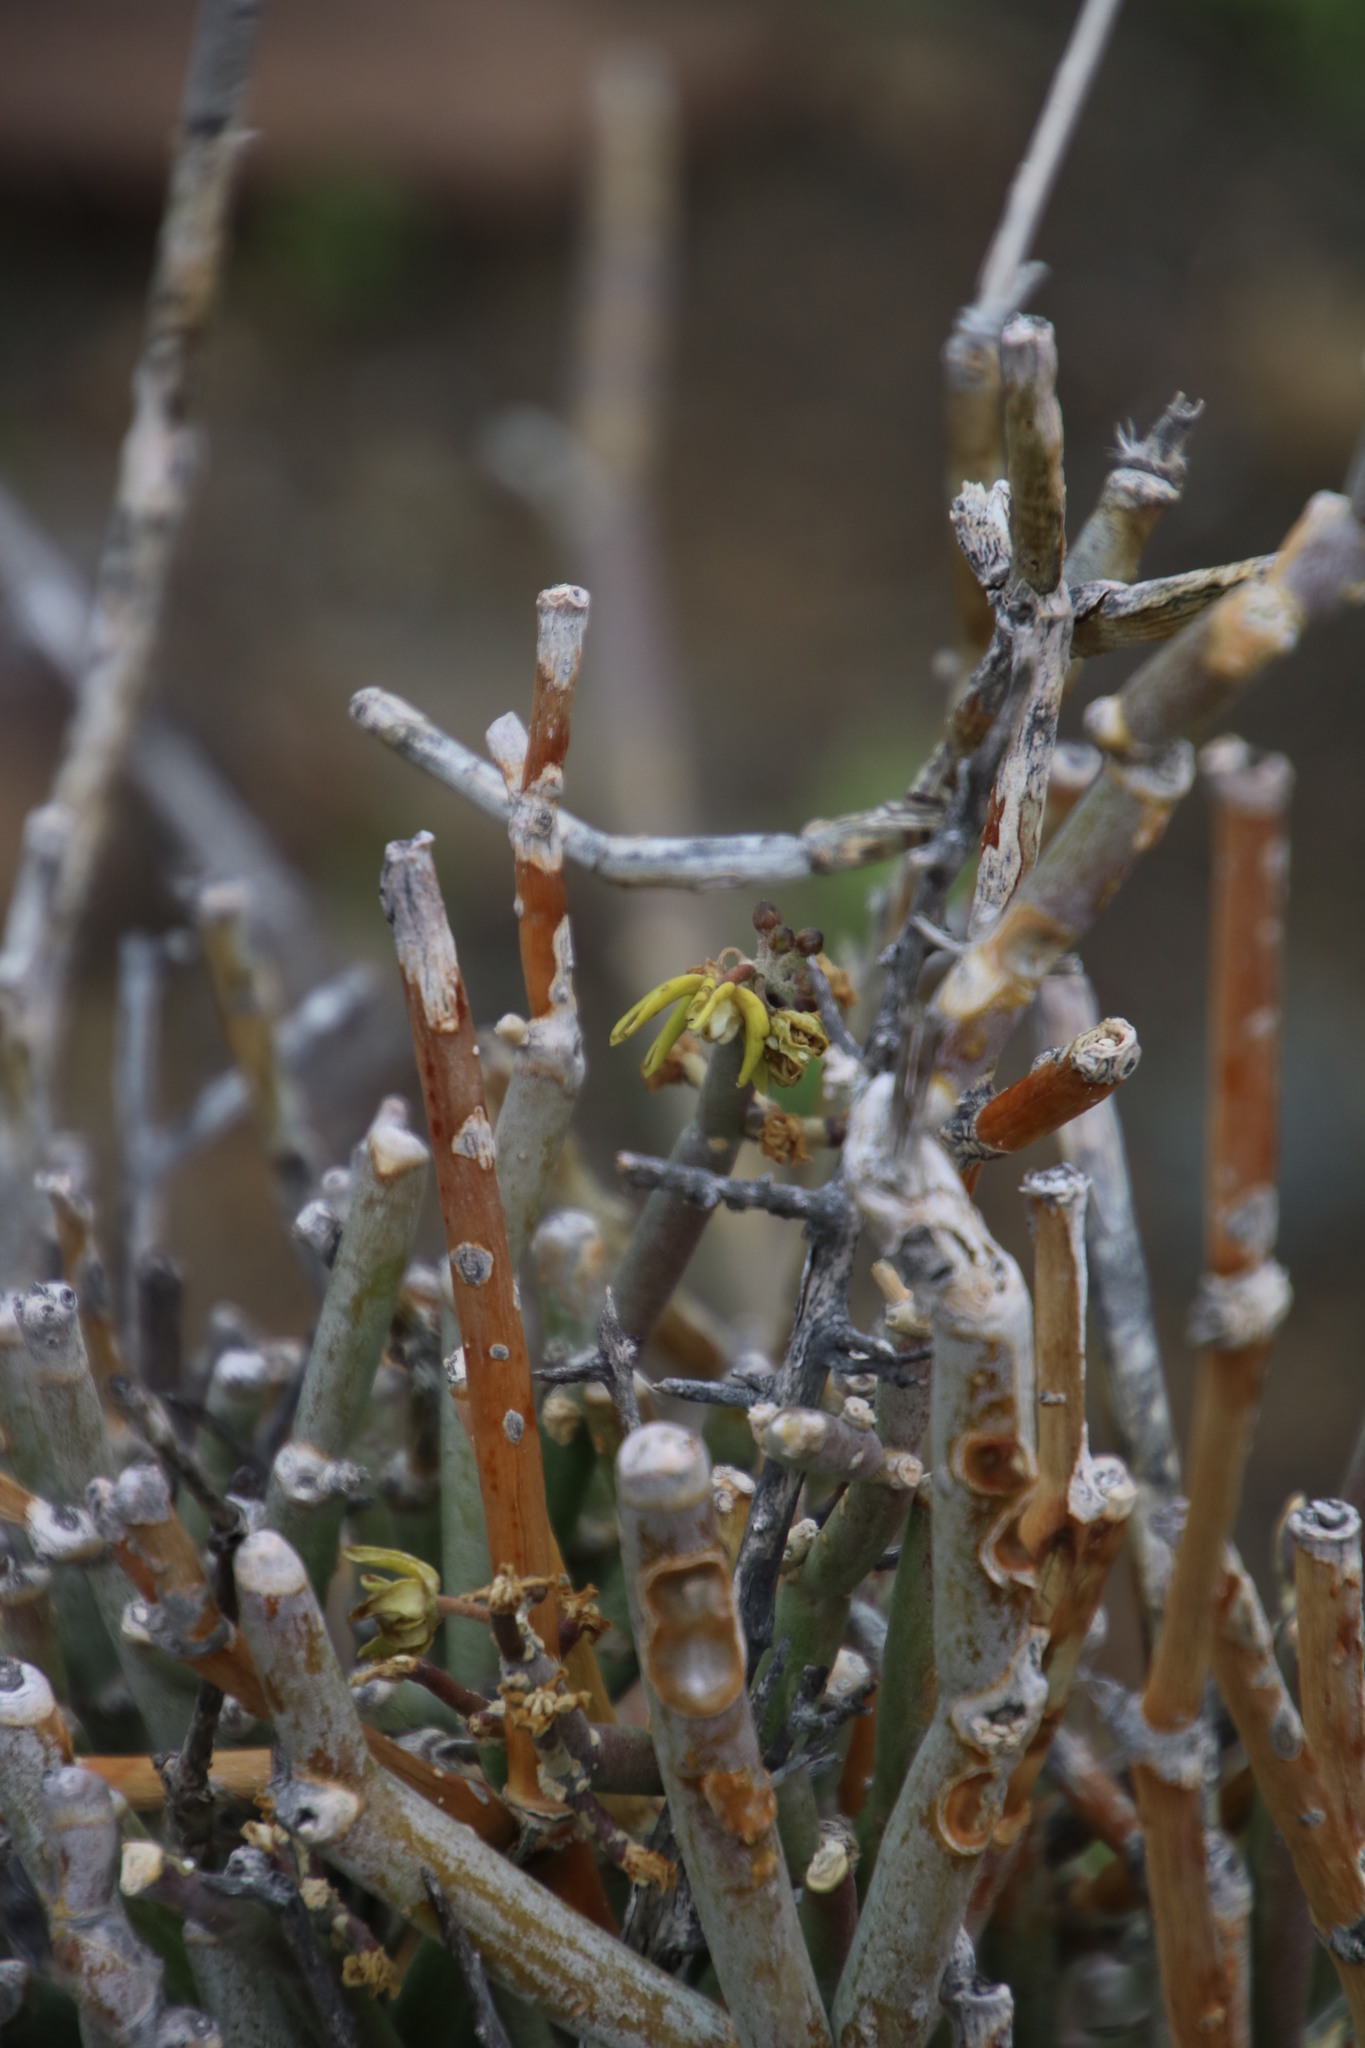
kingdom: Plantae
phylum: Tracheophyta
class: Magnoliopsida
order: Gentianales
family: Apocynaceae
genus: Cynanchum
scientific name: Cynanchum viminale
